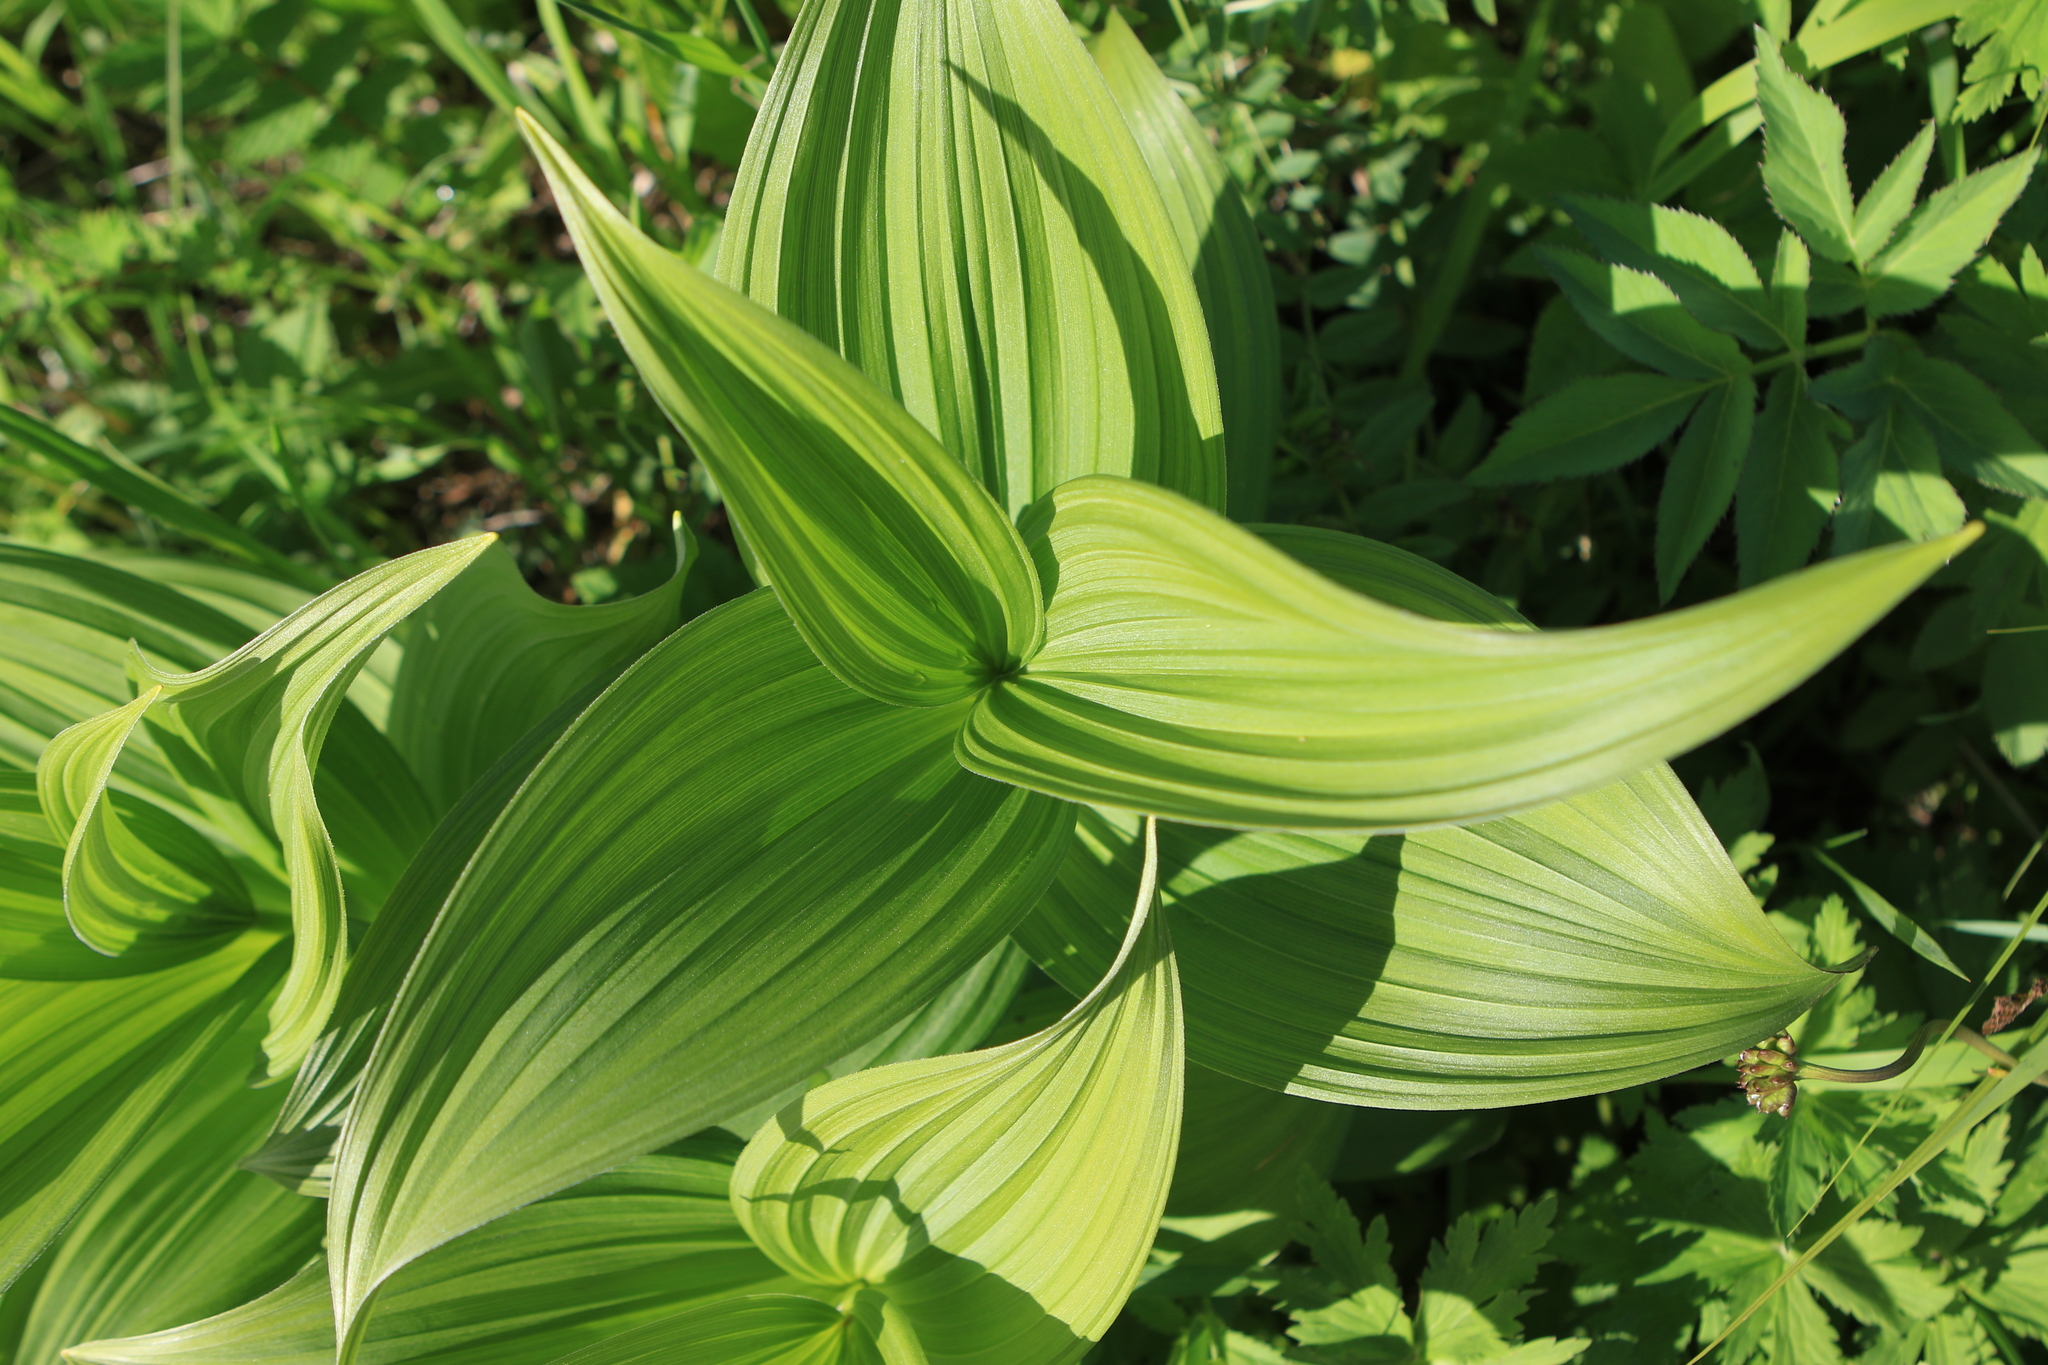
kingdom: Plantae
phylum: Tracheophyta
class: Liliopsida
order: Liliales
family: Melanthiaceae
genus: Veratrum
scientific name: Veratrum lobelianum
